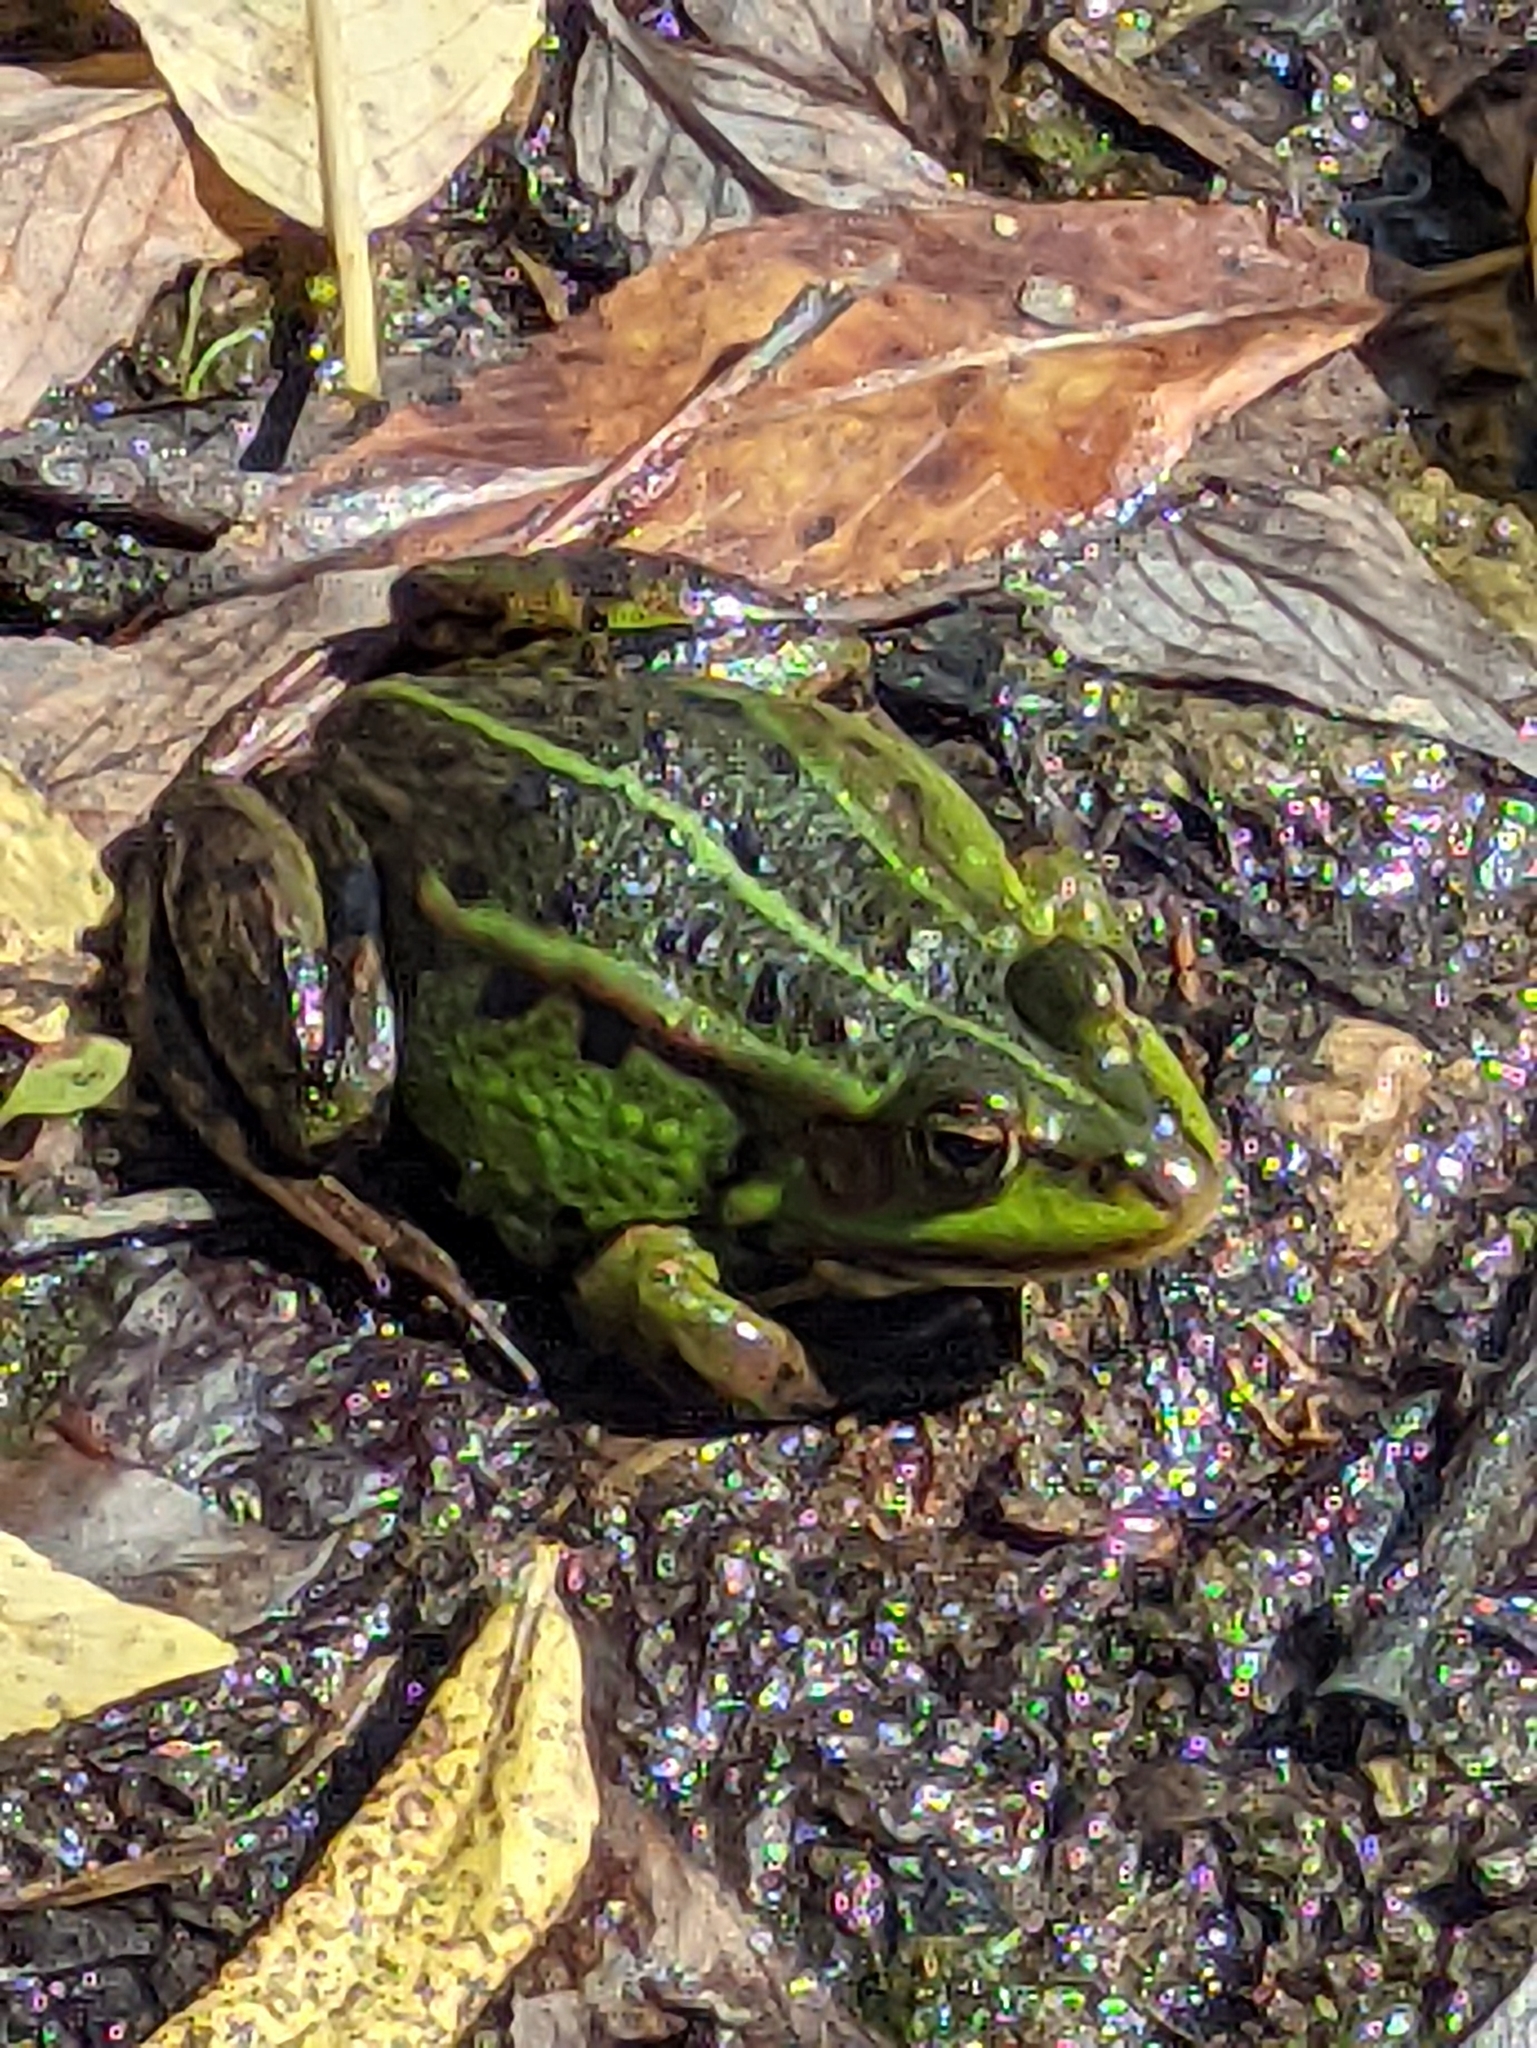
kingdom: Animalia
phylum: Chordata
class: Amphibia
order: Anura
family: Ranidae
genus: Pelophylax
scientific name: Pelophylax lessonae
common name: Pool frog
